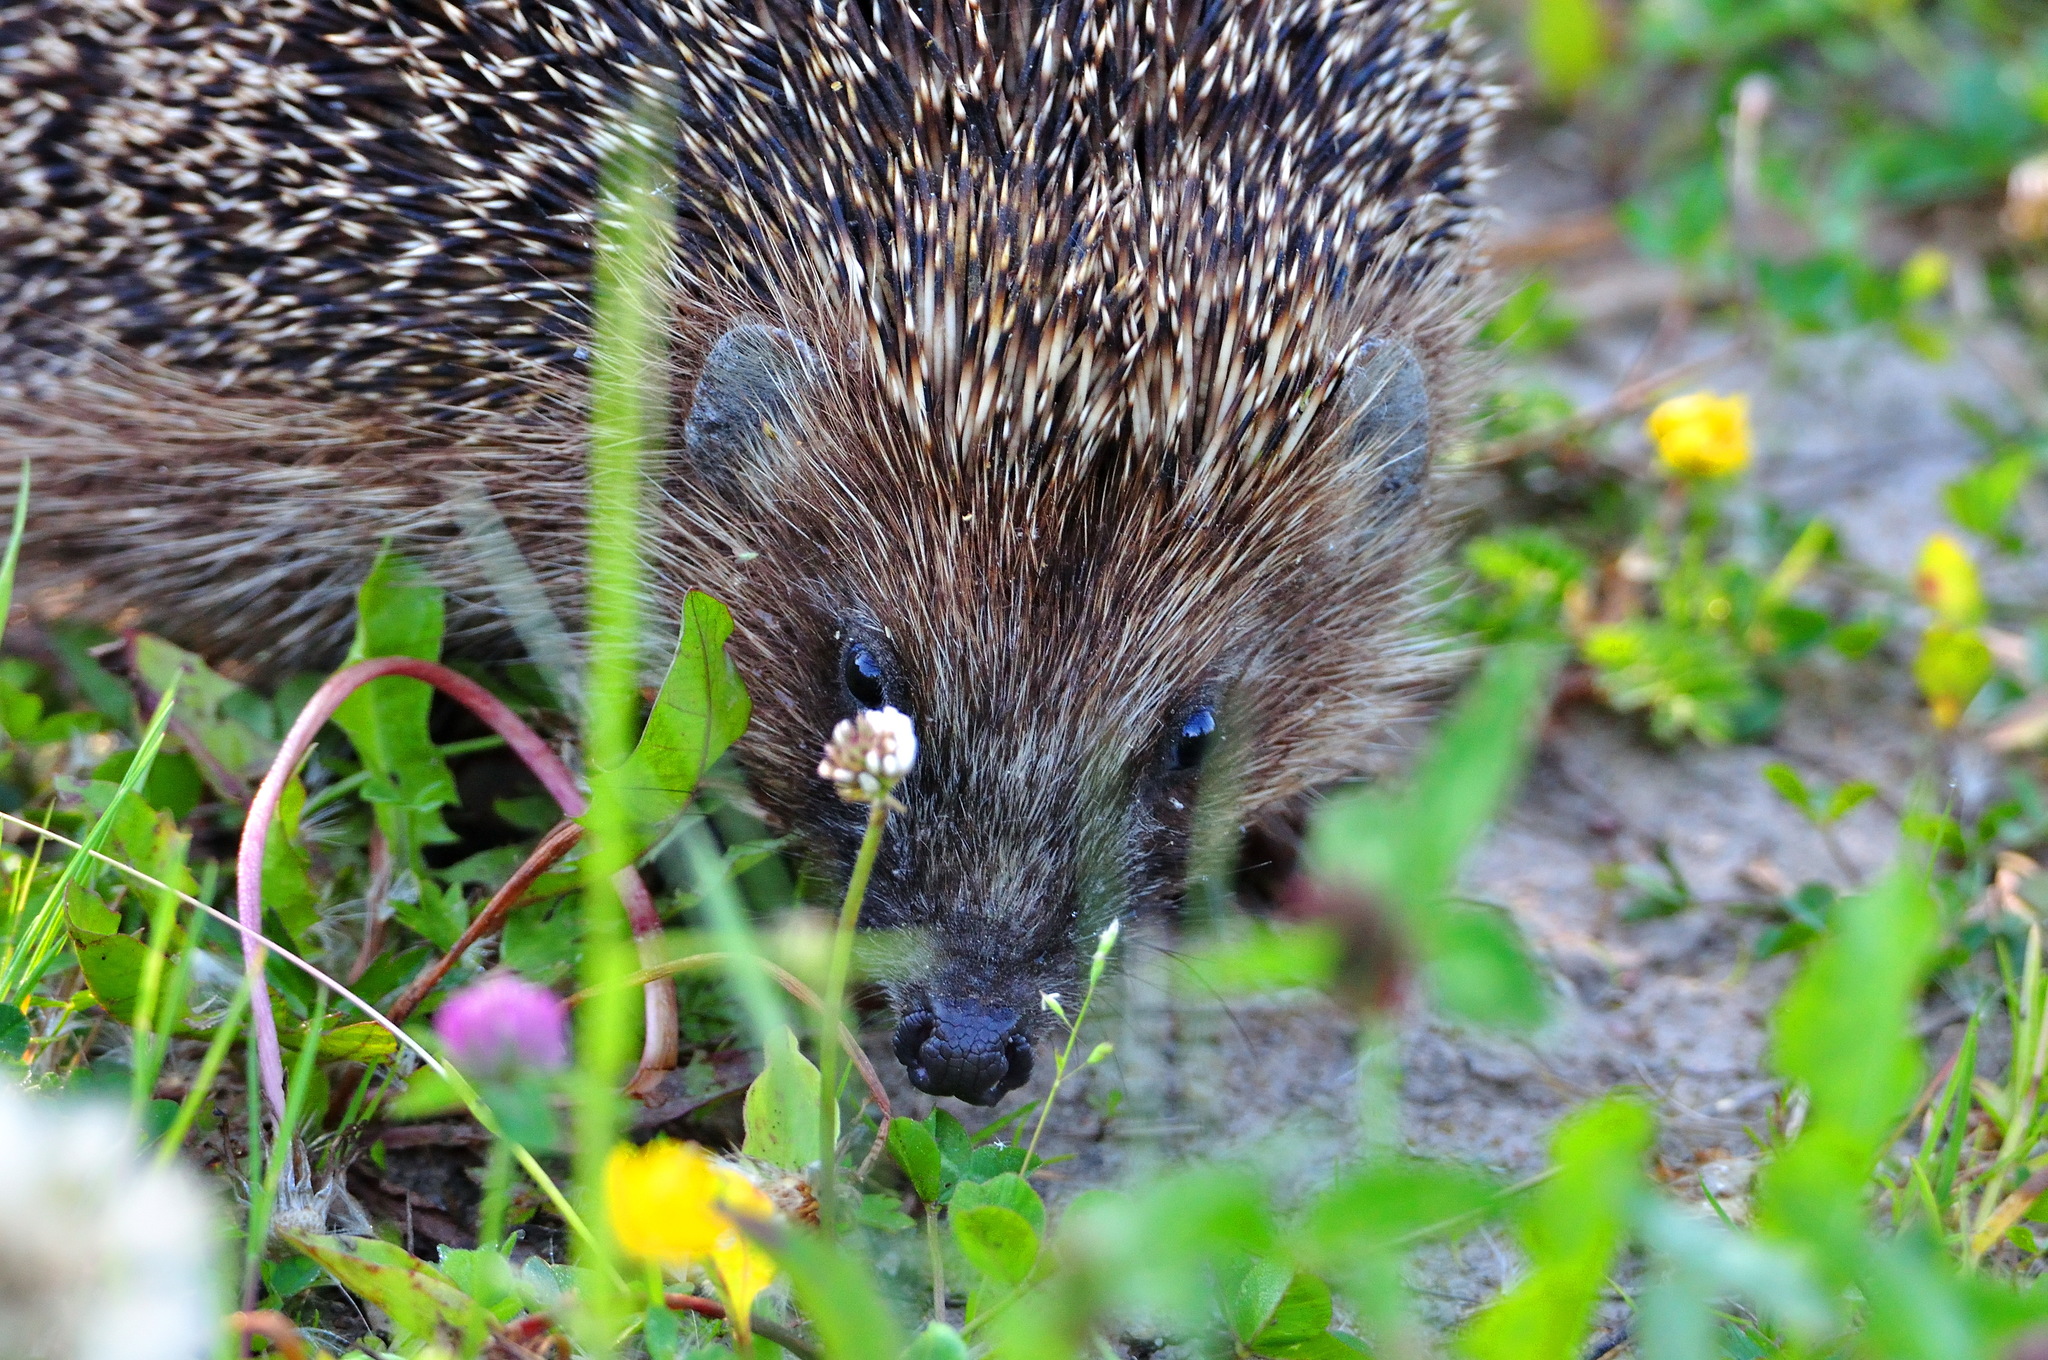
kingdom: Animalia
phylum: Chordata
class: Mammalia
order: Erinaceomorpha
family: Erinaceidae
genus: Erinaceus
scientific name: Erinaceus europaeus
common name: West european hedgehog
